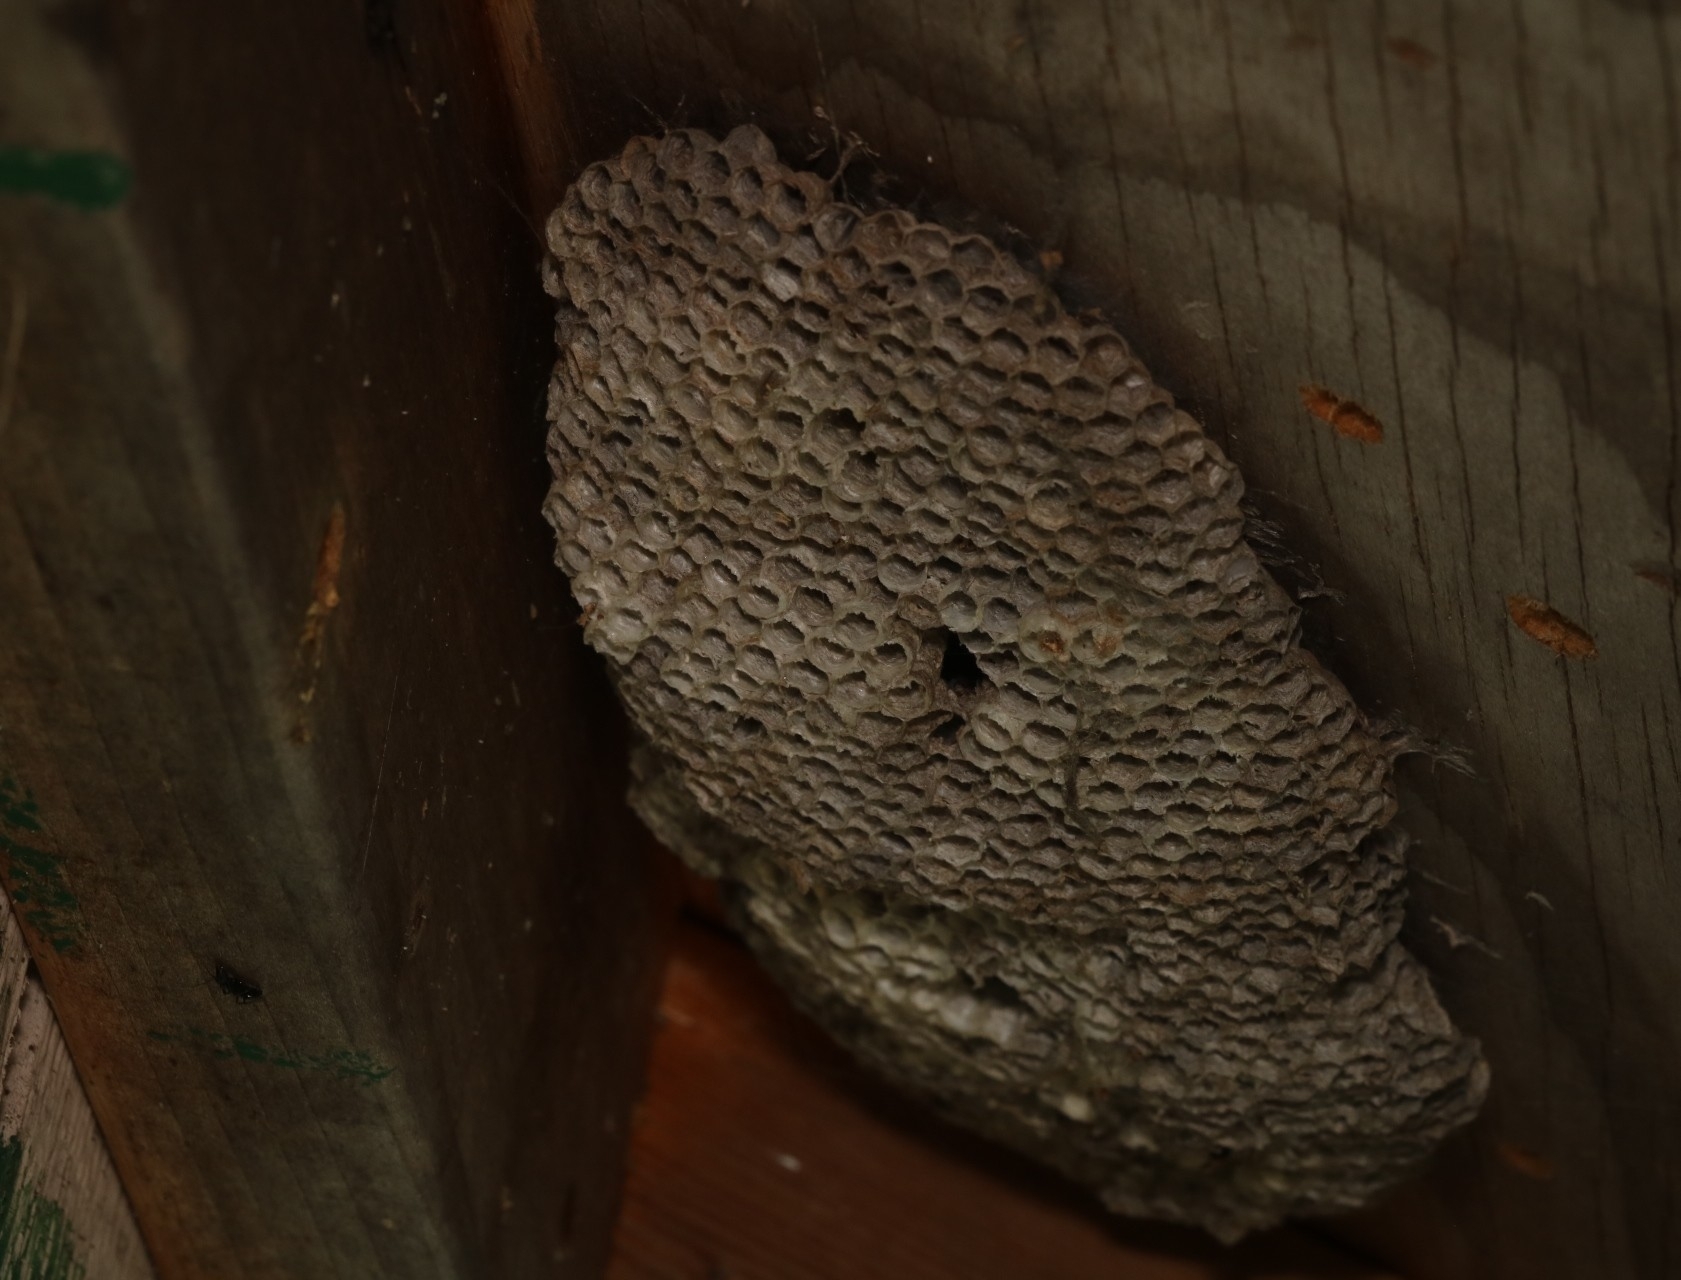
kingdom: Animalia
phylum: Arthropoda
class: Insecta
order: Hymenoptera
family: Eumenidae
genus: Polistes
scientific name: Polistes
